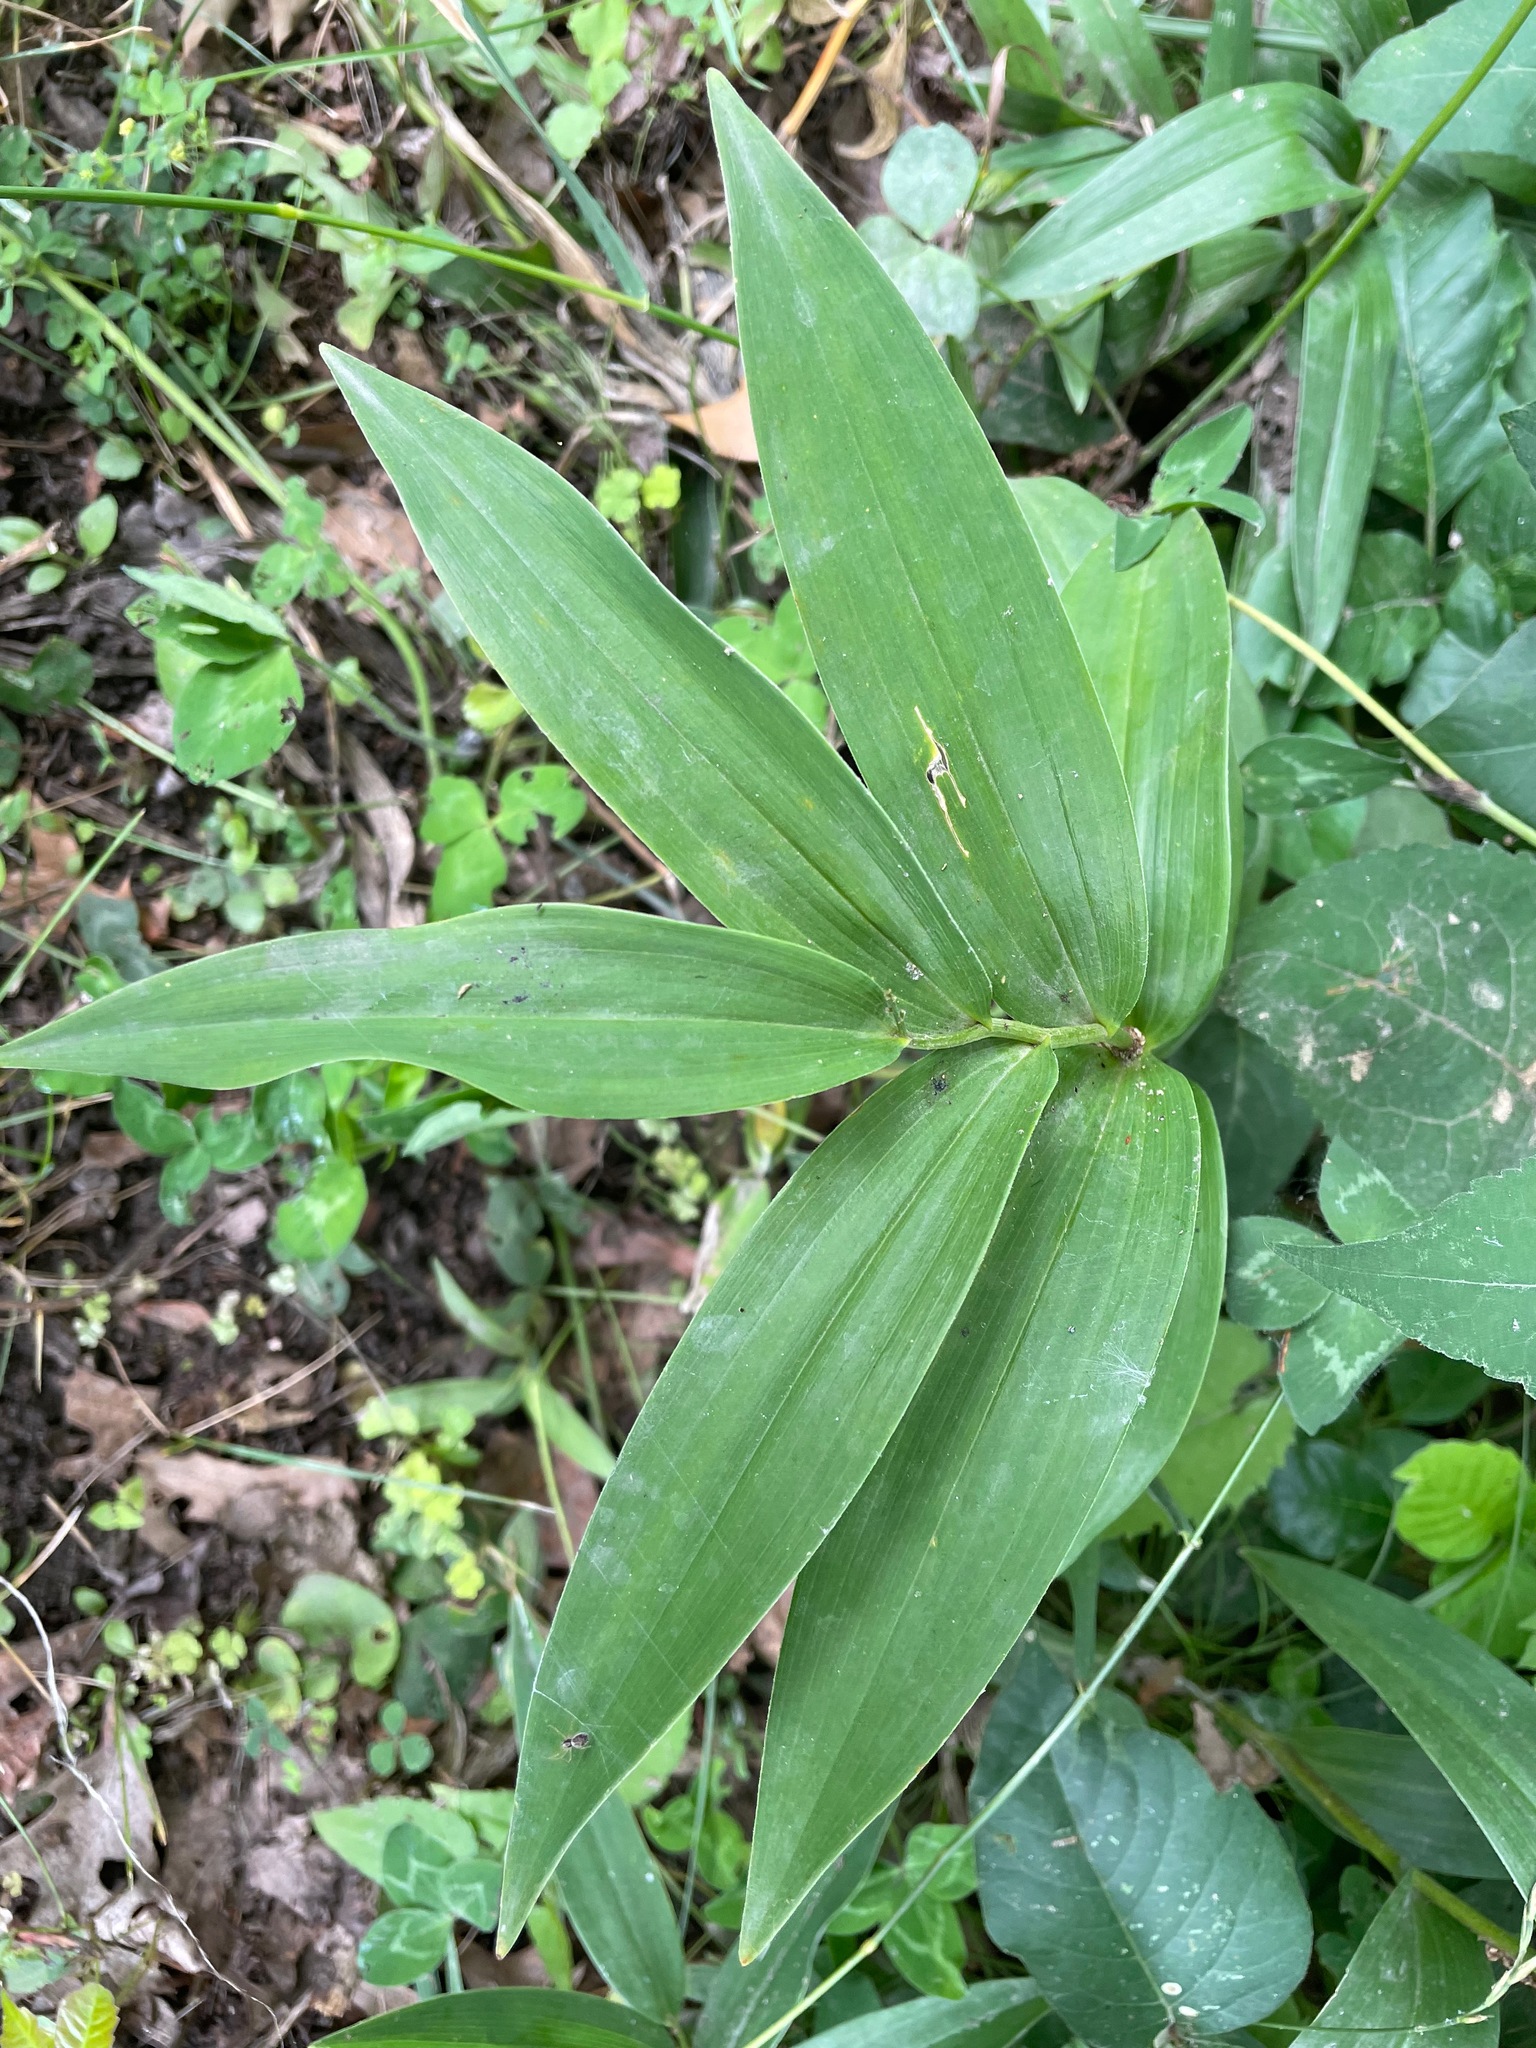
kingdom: Plantae
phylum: Tracheophyta
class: Liliopsida
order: Asparagales
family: Asparagaceae
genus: Maianthemum
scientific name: Maianthemum stellatum
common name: Little false solomon's seal
